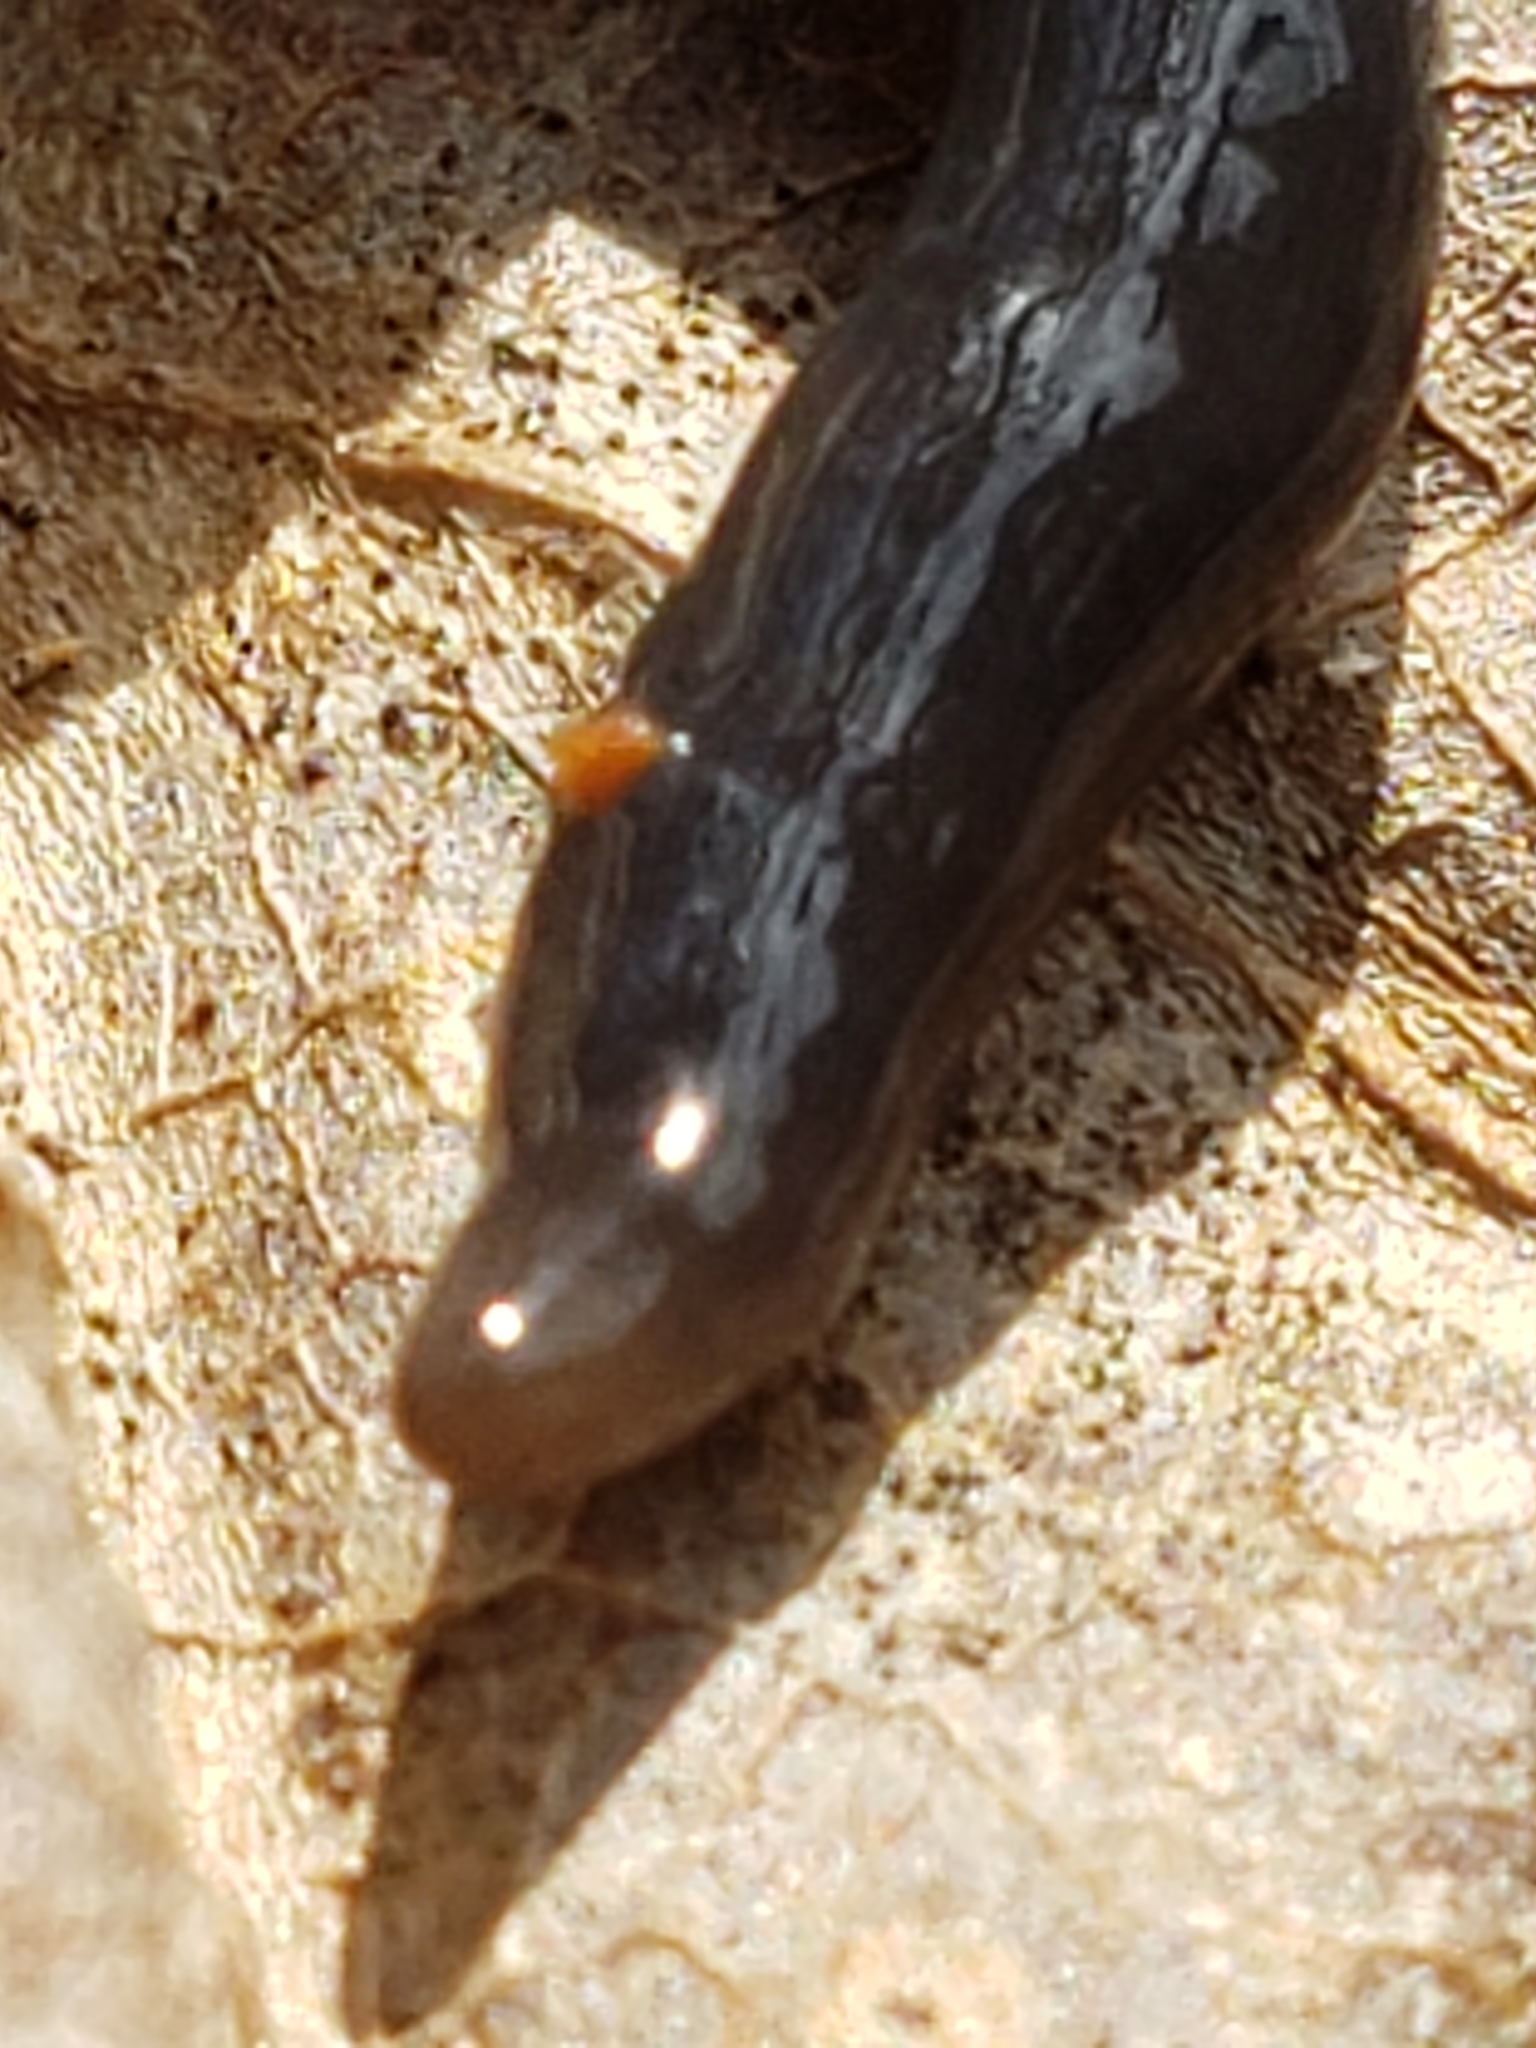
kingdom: Animalia
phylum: Platyhelminthes
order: Tricladida
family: Geoplanidae
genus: Microplana
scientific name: Microplana terrestris
